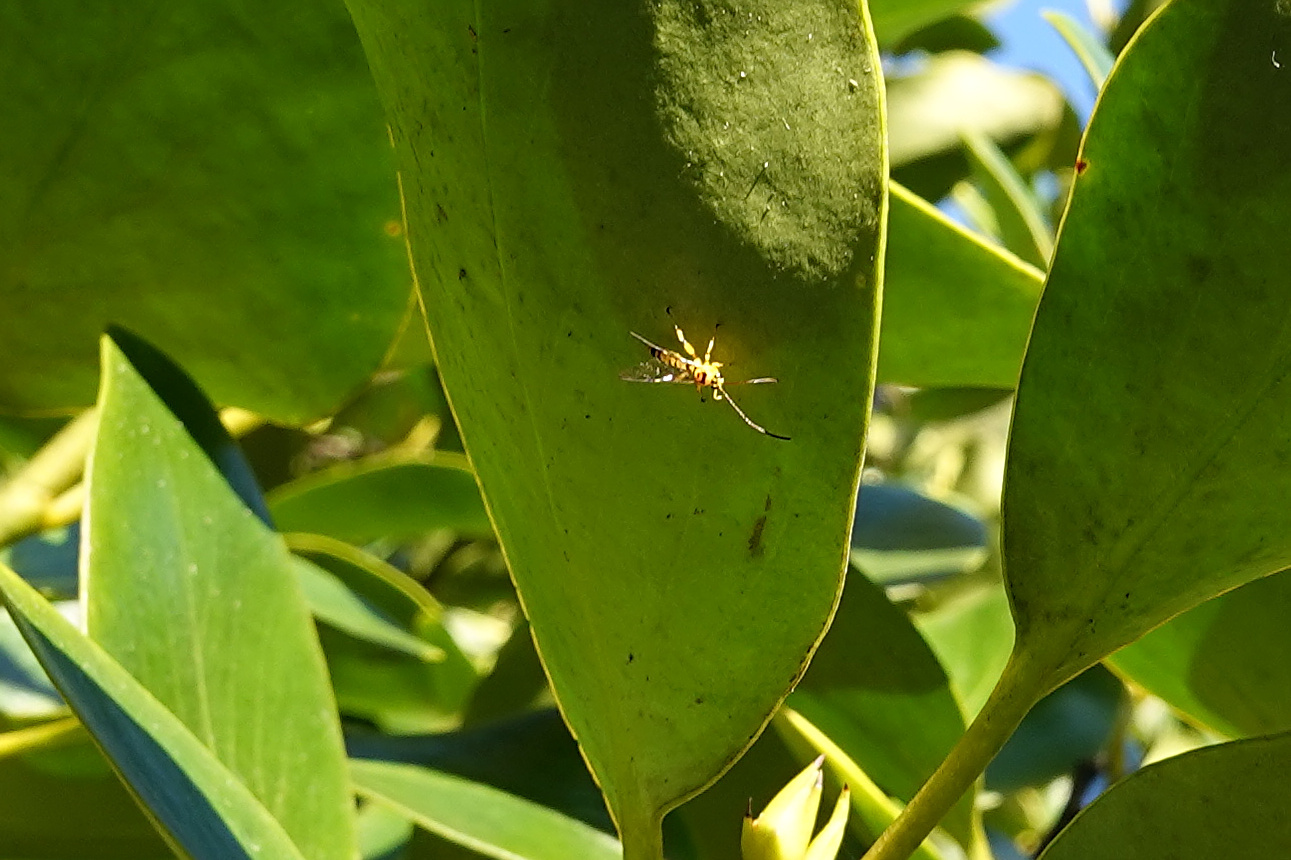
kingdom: Animalia
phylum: Arthropoda
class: Insecta
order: Hymenoptera
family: Ichneumonidae
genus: Xanthopimpla
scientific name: Xanthopimpla rhopaloceros
